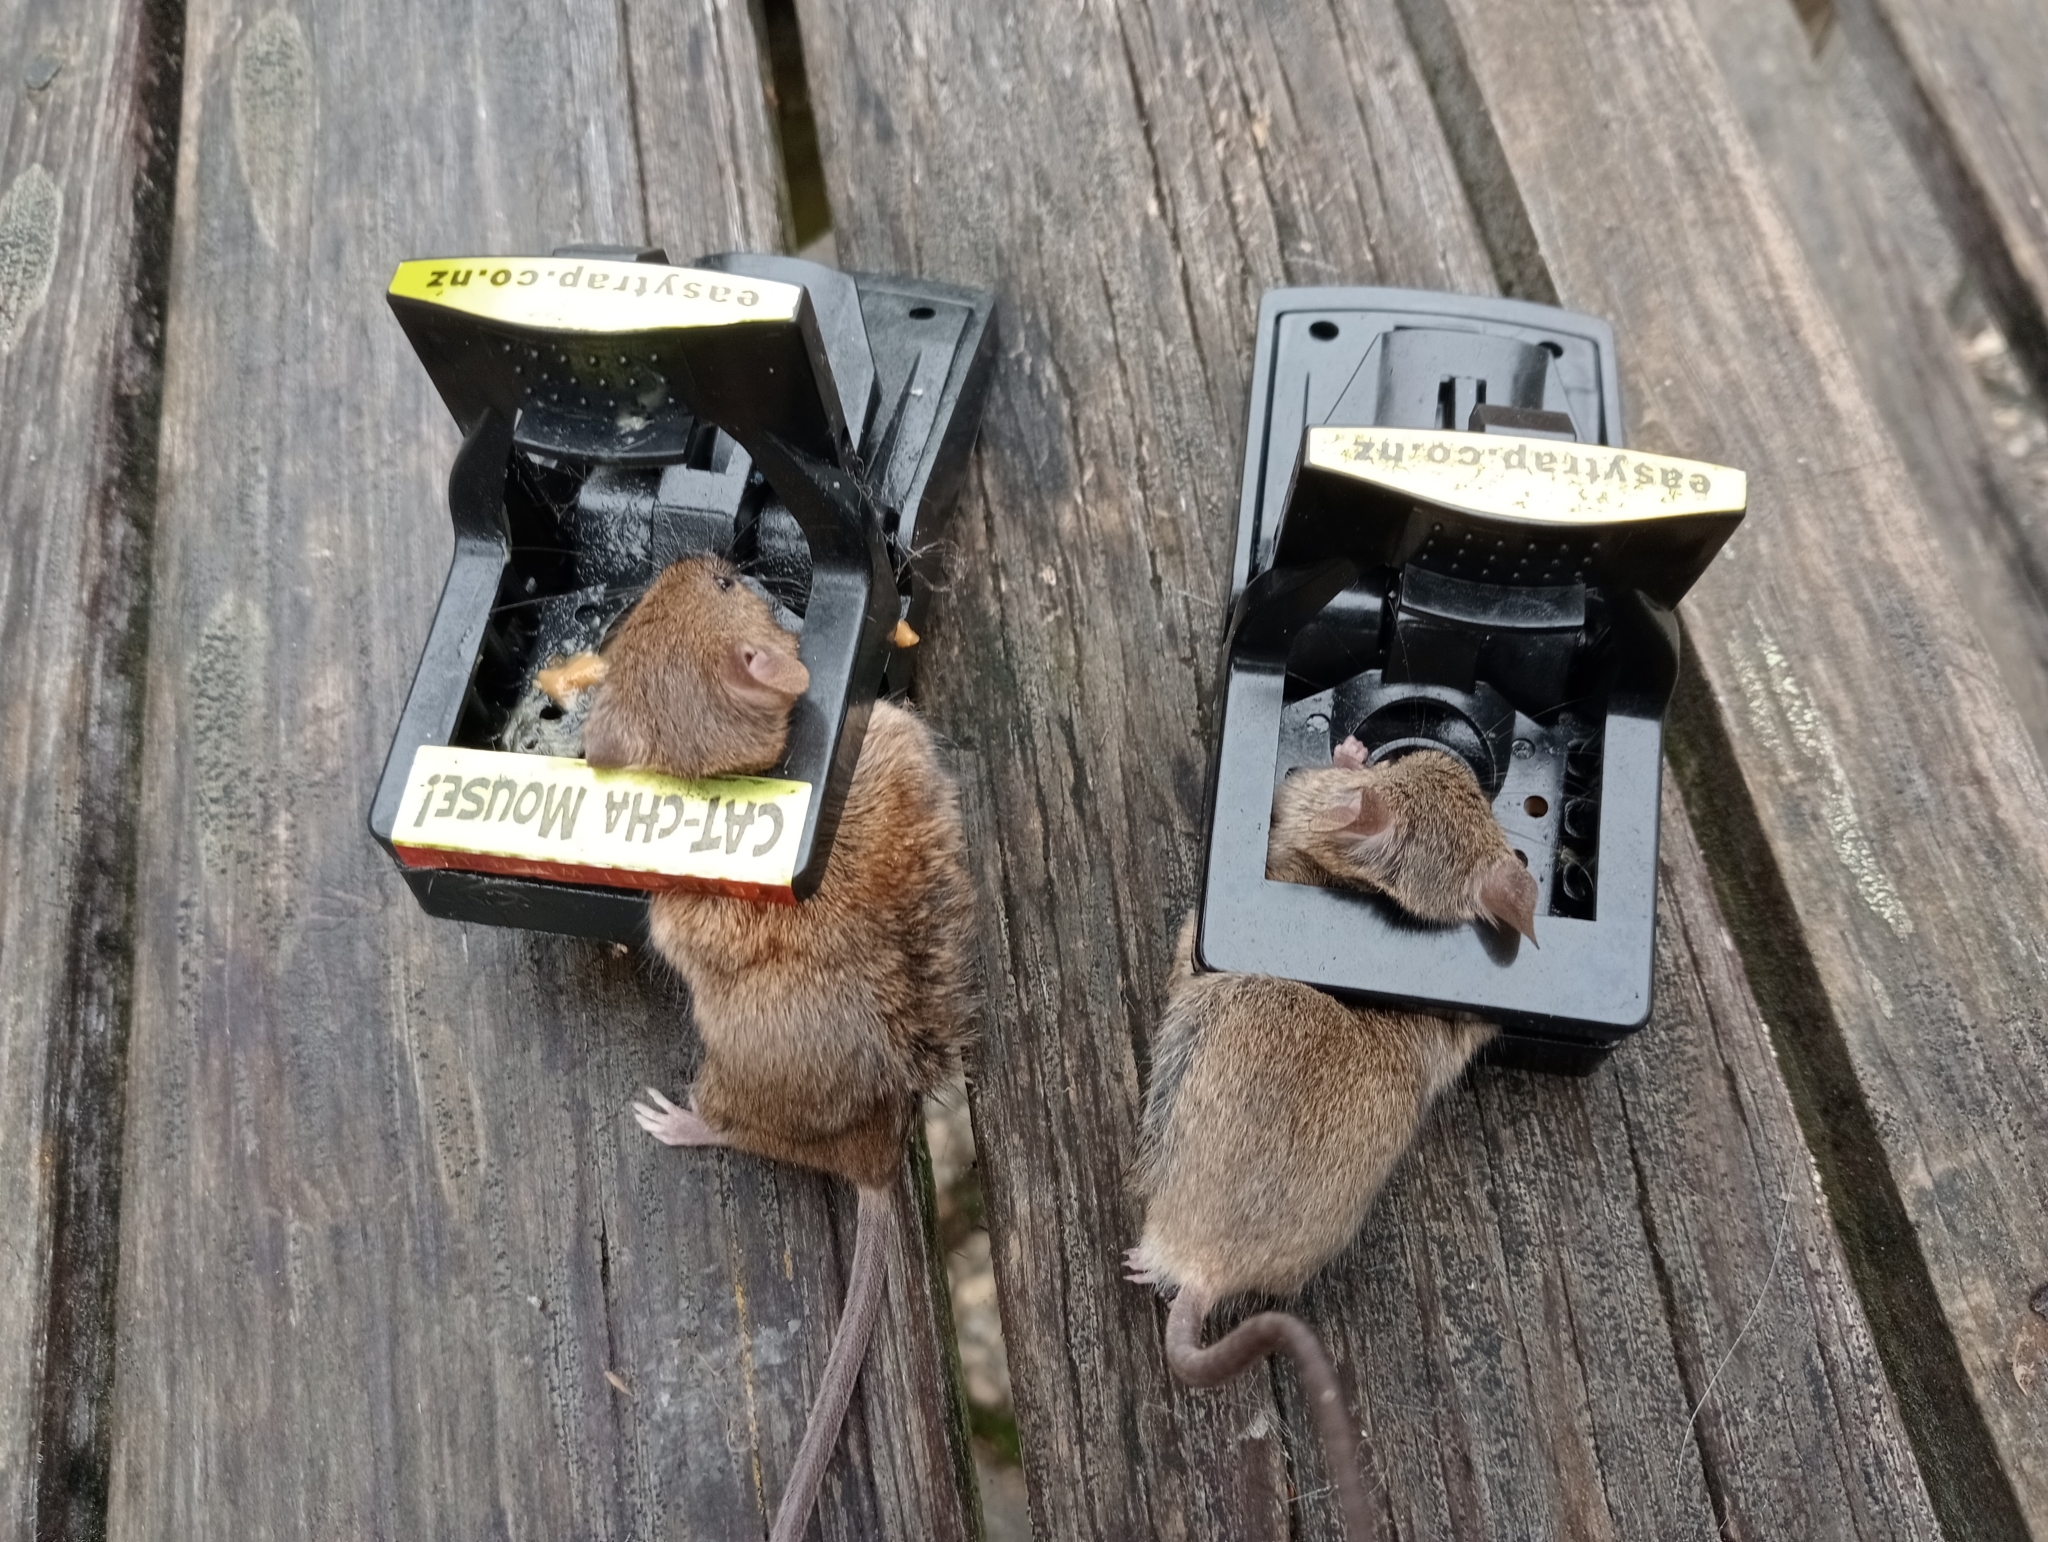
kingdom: Animalia
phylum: Chordata
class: Mammalia
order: Rodentia
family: Muridae
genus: Mus
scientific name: Mus musculus
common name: House mouse
